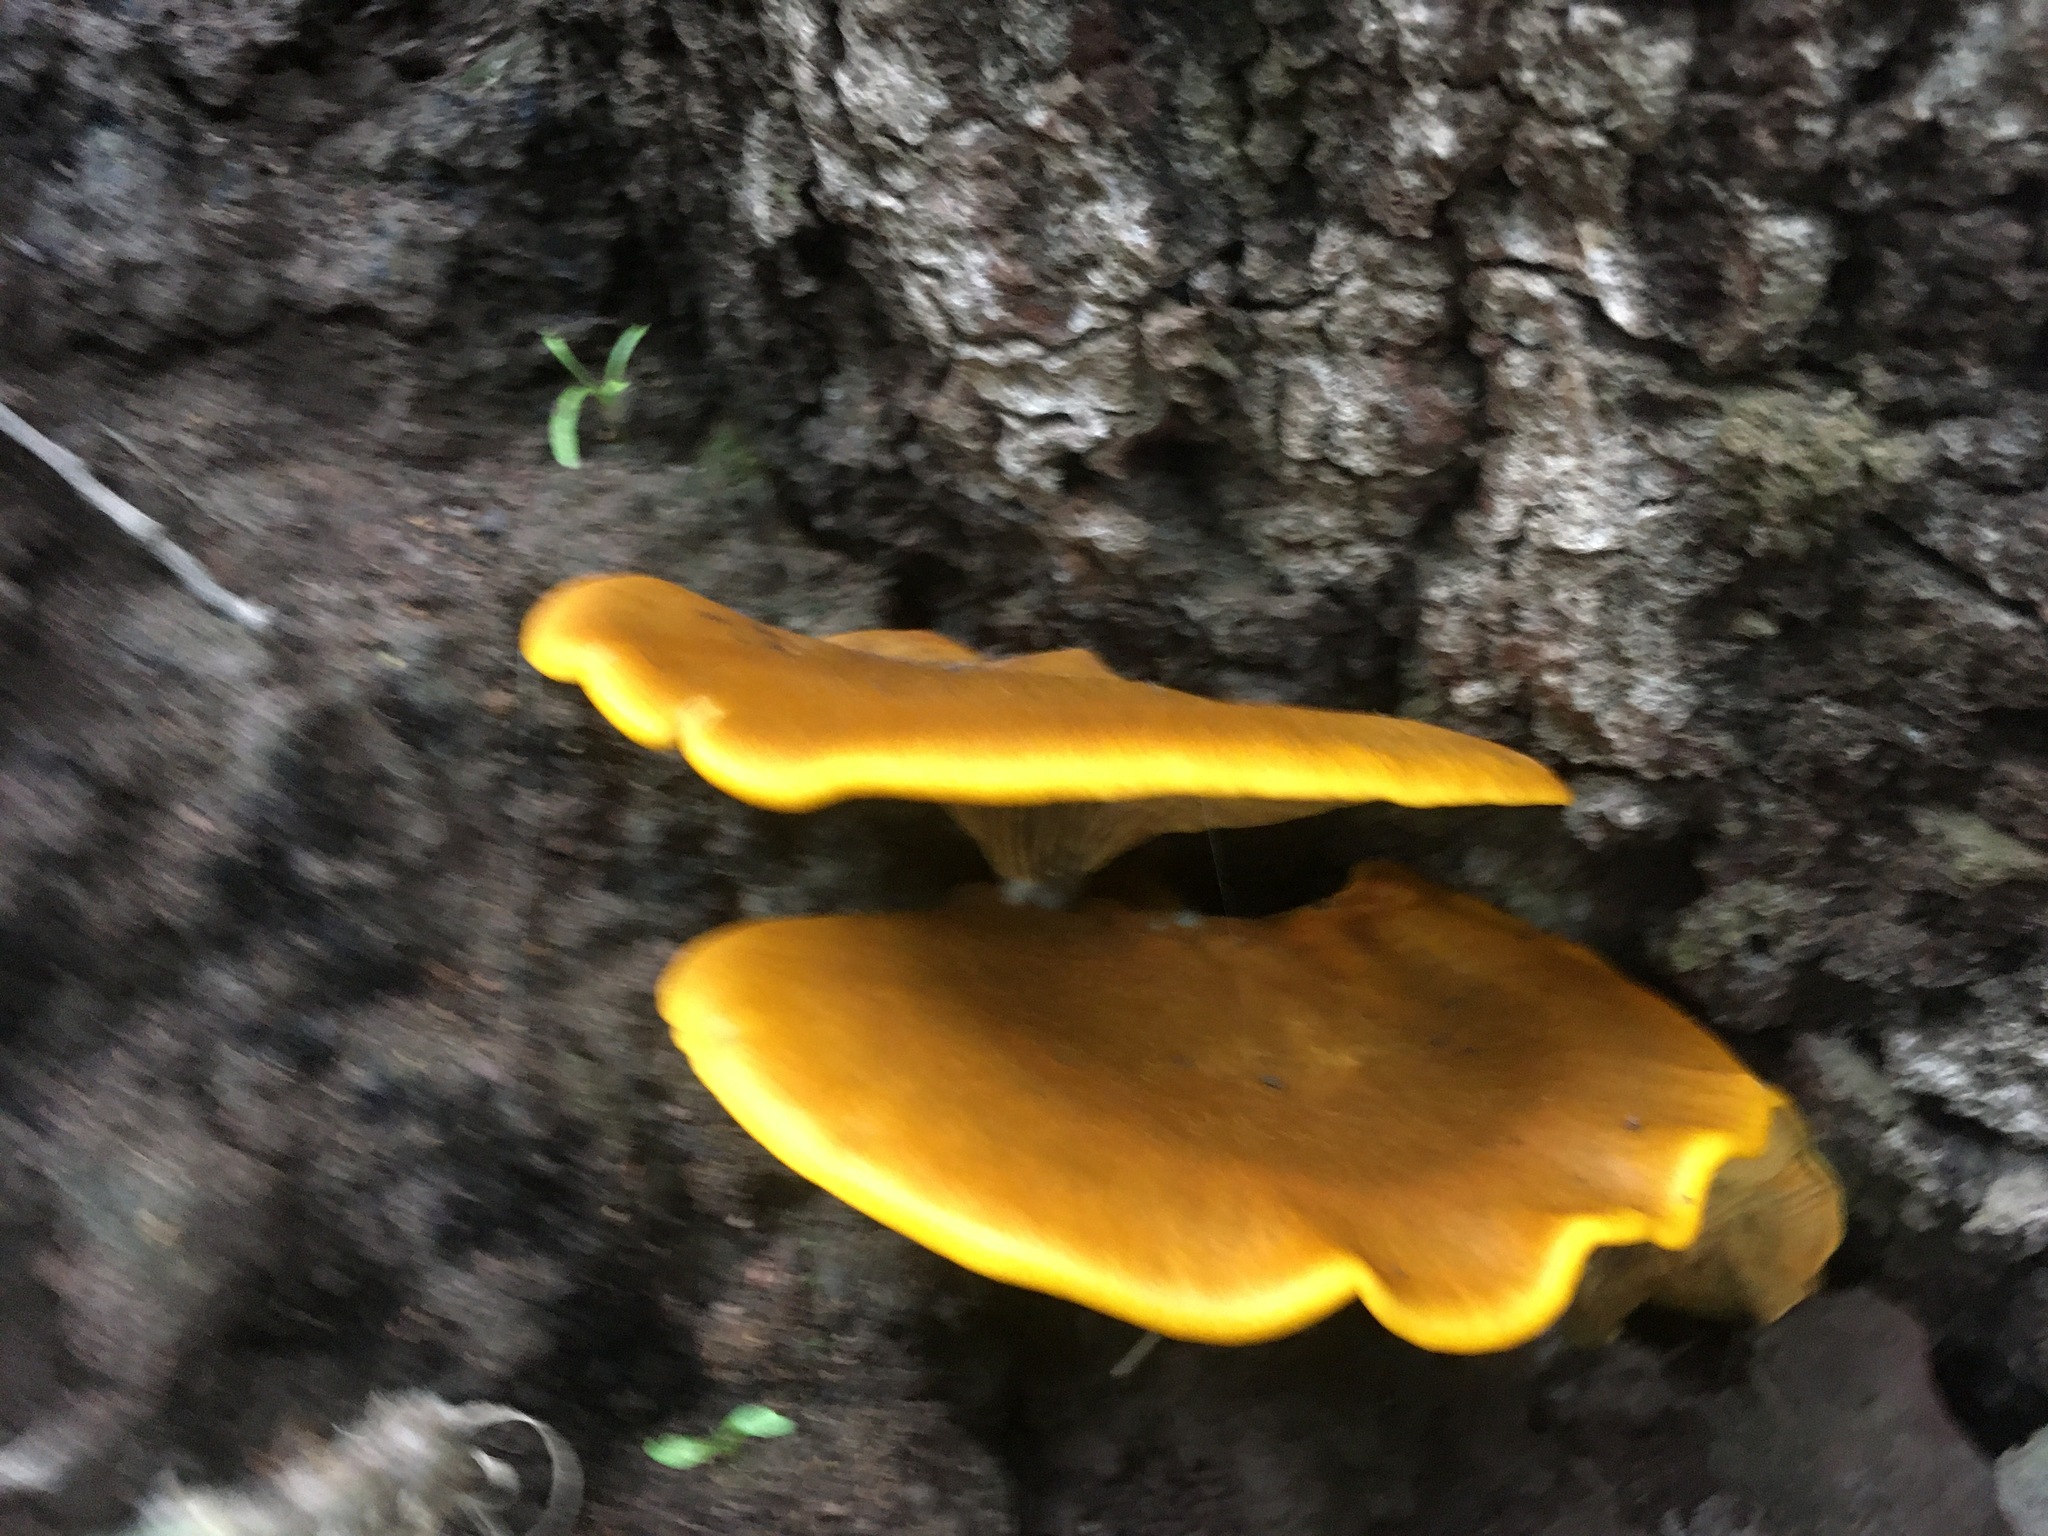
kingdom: Fungi
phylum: Basidiomycota
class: Agaricomycetes
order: Agaricales
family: Omphalotaceae
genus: Omphalotus
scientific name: Omphalotus olivascens
